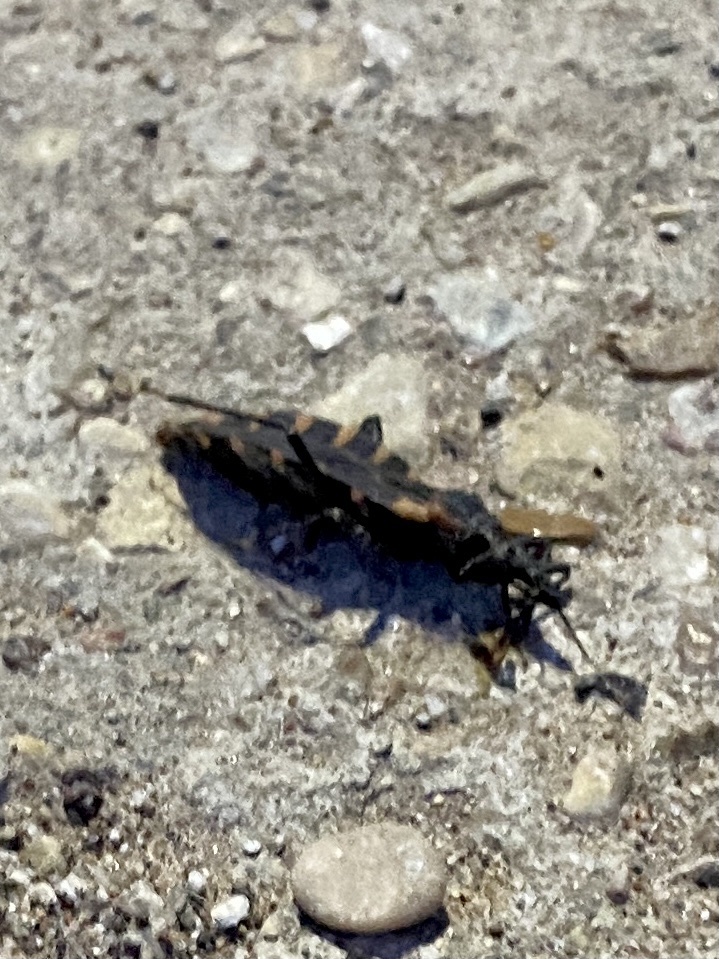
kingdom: Animalia
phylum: Arthropoda
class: Insecta
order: Hemiptera
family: Reduviidae
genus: Triatoma
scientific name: Triatoma sanguisuga
